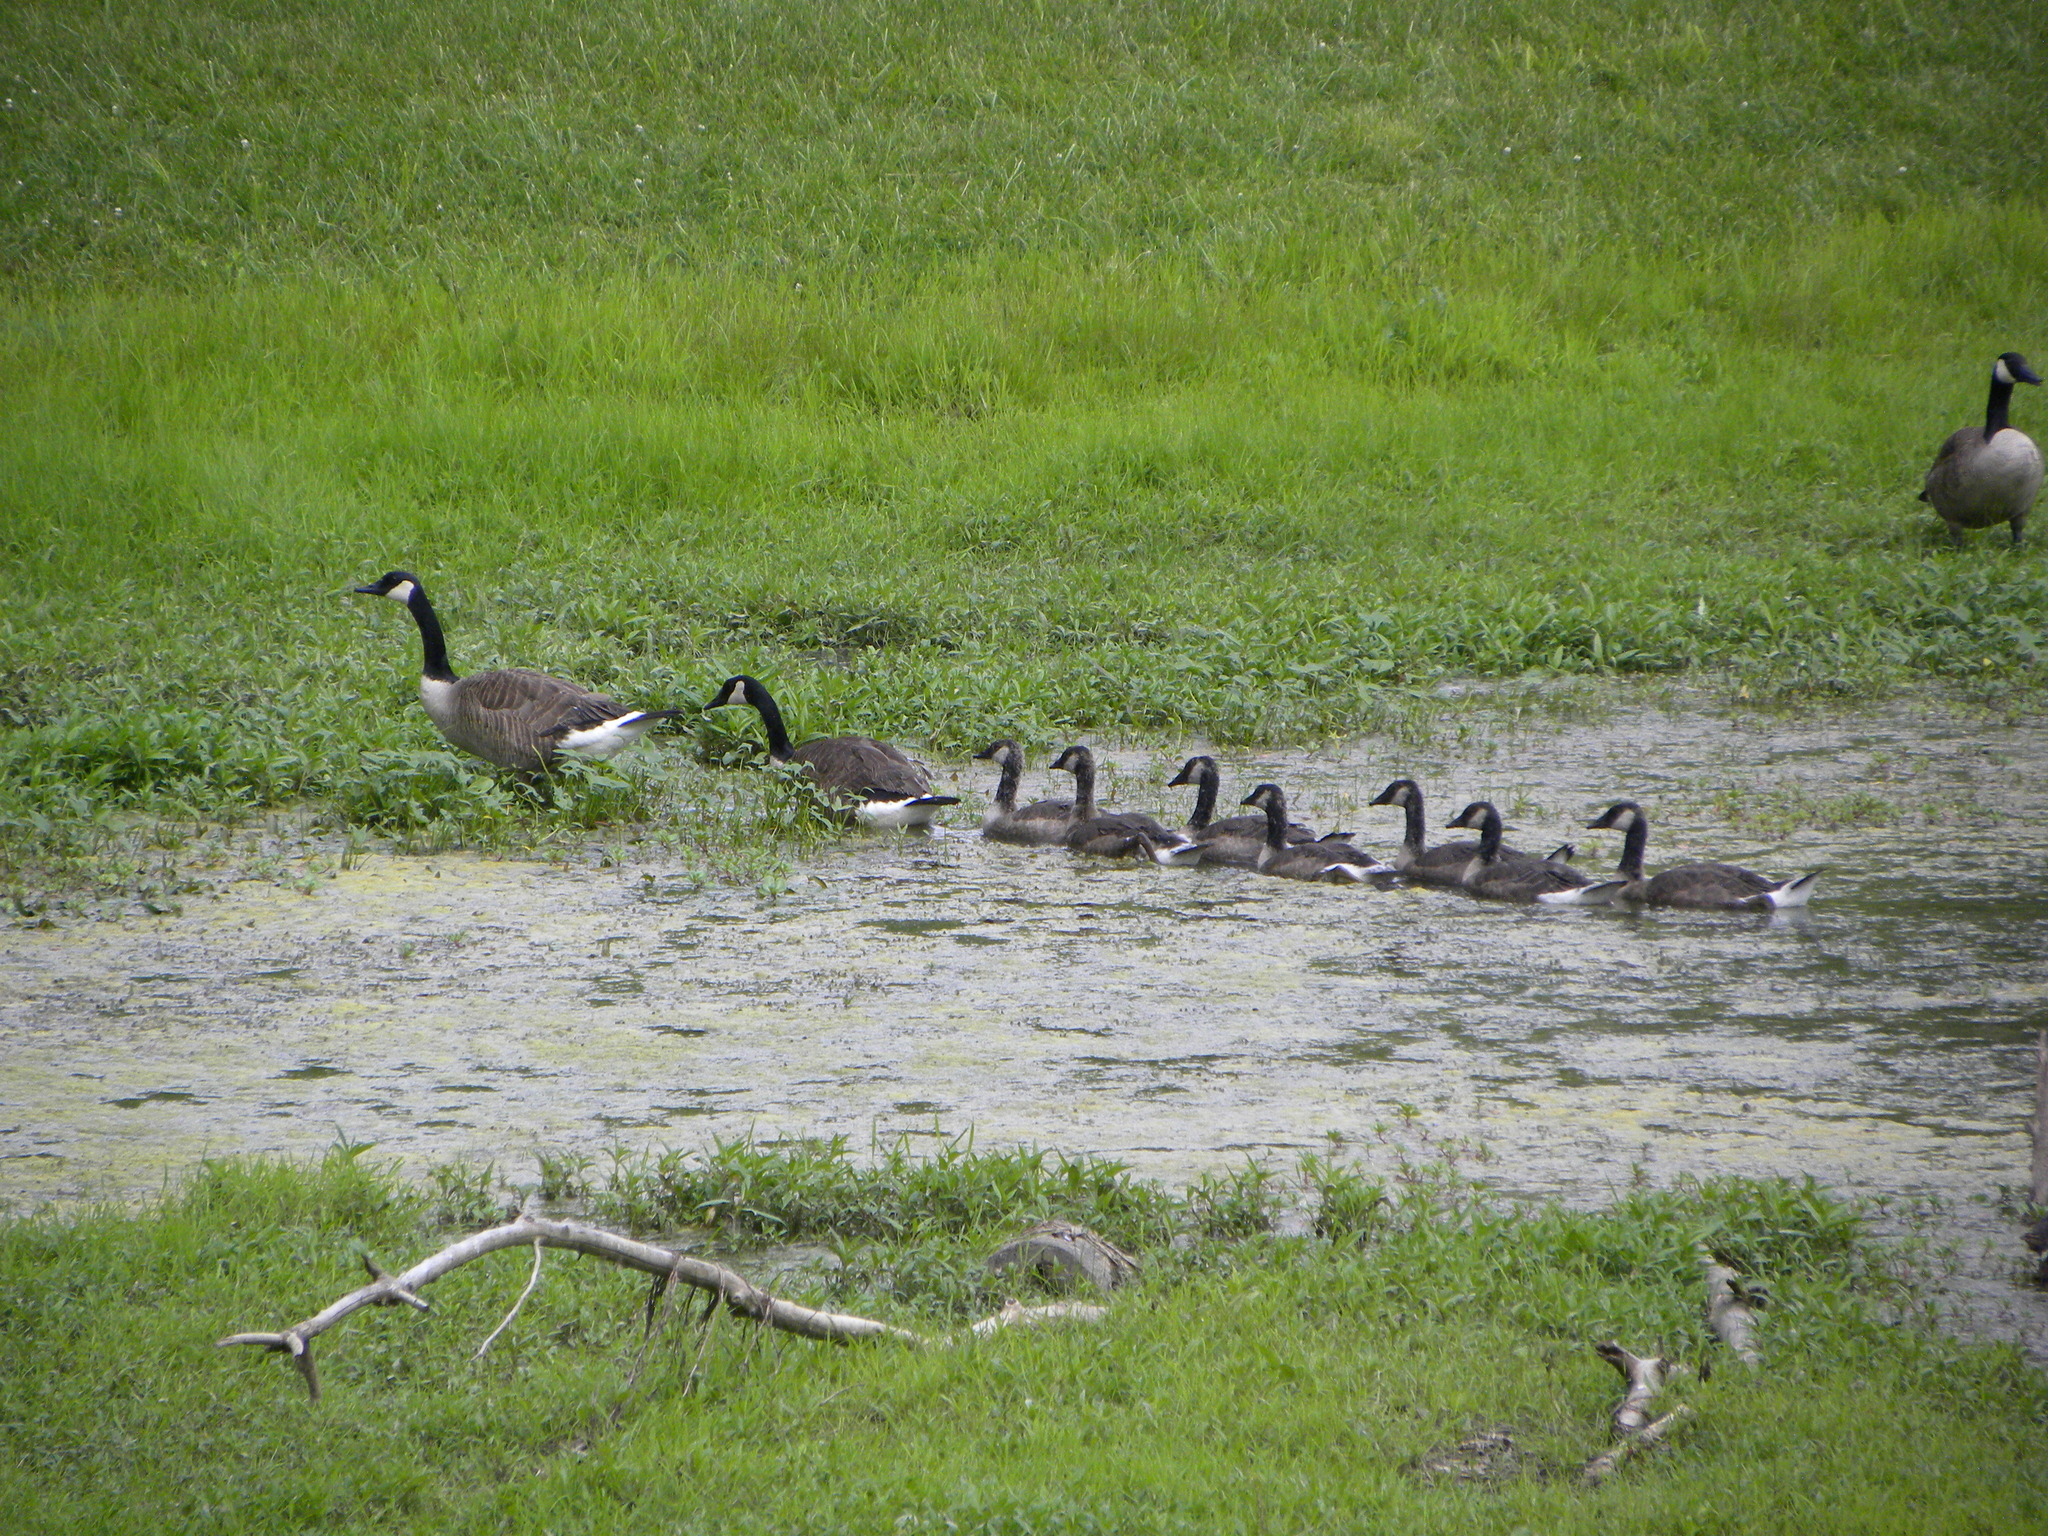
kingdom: Animalia
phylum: Chordata
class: Aves
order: Anseriformes
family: Anatidae
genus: Branta
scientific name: Branta canadensis
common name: Canada goose
